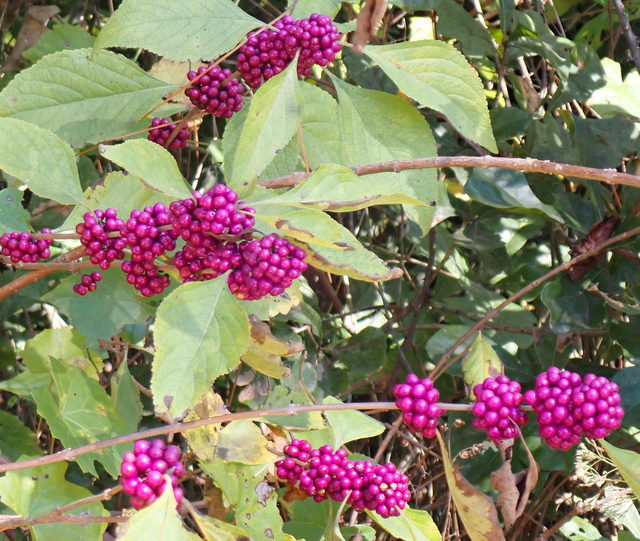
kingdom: Plantae
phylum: Tracheophyta
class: Magnoliopsida
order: Lamiales
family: Lamiaceae
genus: Callicarpa
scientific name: Callicarpa americana
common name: American beautyberry
